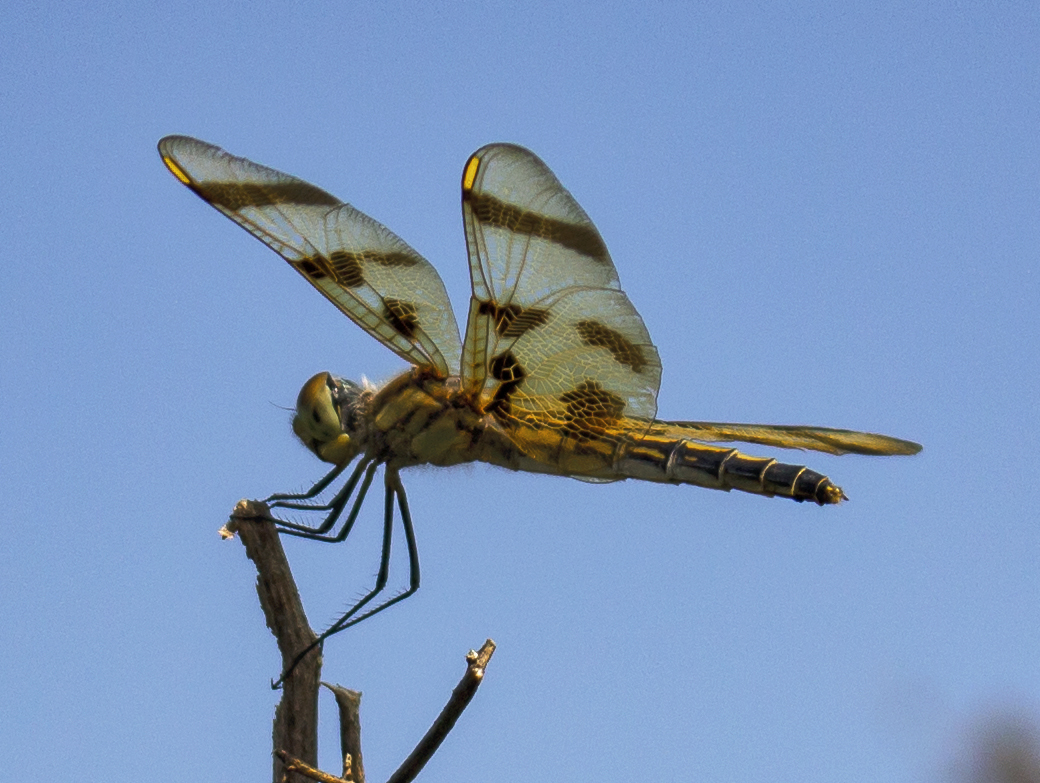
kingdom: Animalia
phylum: Arthropoda
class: Insecta
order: Odonata
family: Libellulidae
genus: Celithemis
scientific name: Celithemis eponina
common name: Halloween pennant
